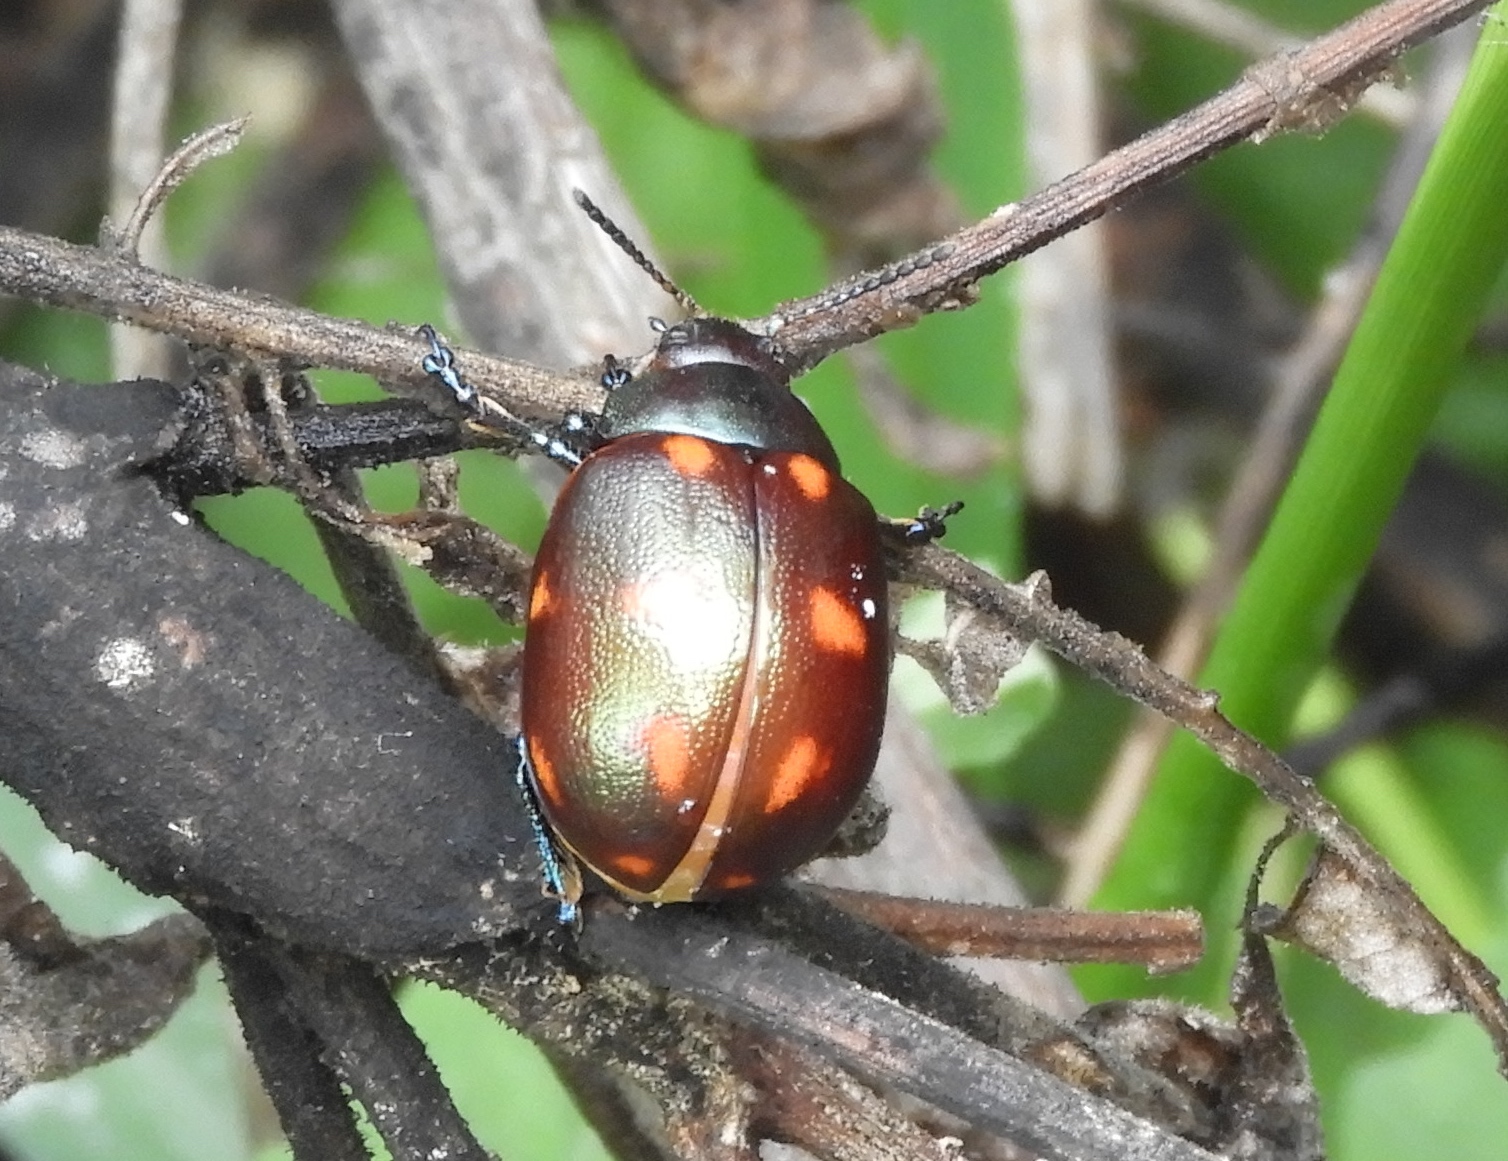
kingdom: Animalia
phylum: Arthropoda
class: Insecta
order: Coleoptera
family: Chrysomelidae
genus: Leptinotarsa
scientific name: Leptinotarsa behrensi
